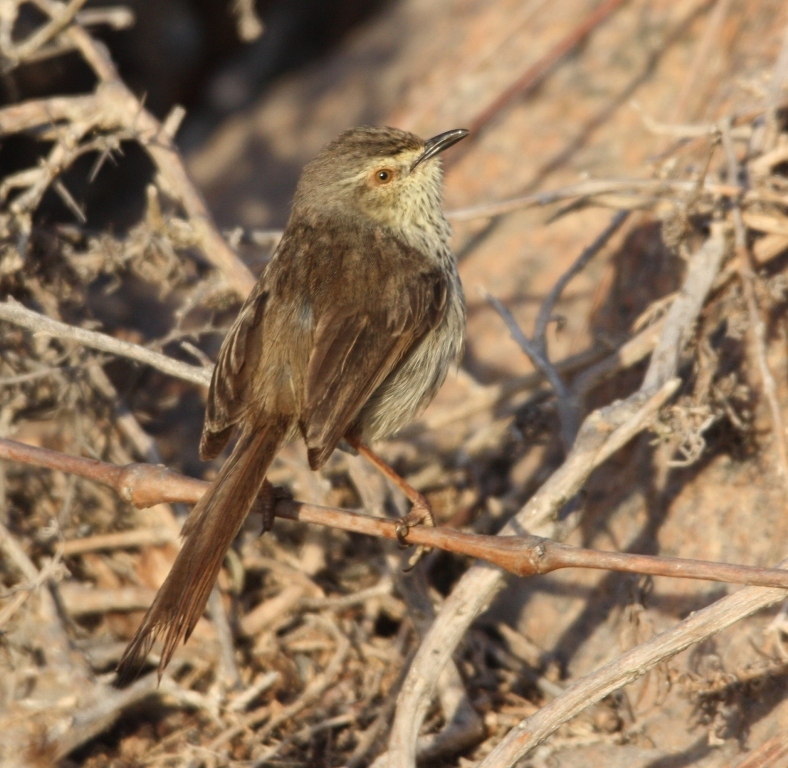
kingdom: Animalia
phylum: Chordata
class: Aves
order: Passeriformes
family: Cisticolidae
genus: Prinia
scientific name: Prinia maculosa
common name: Karoo prinia
